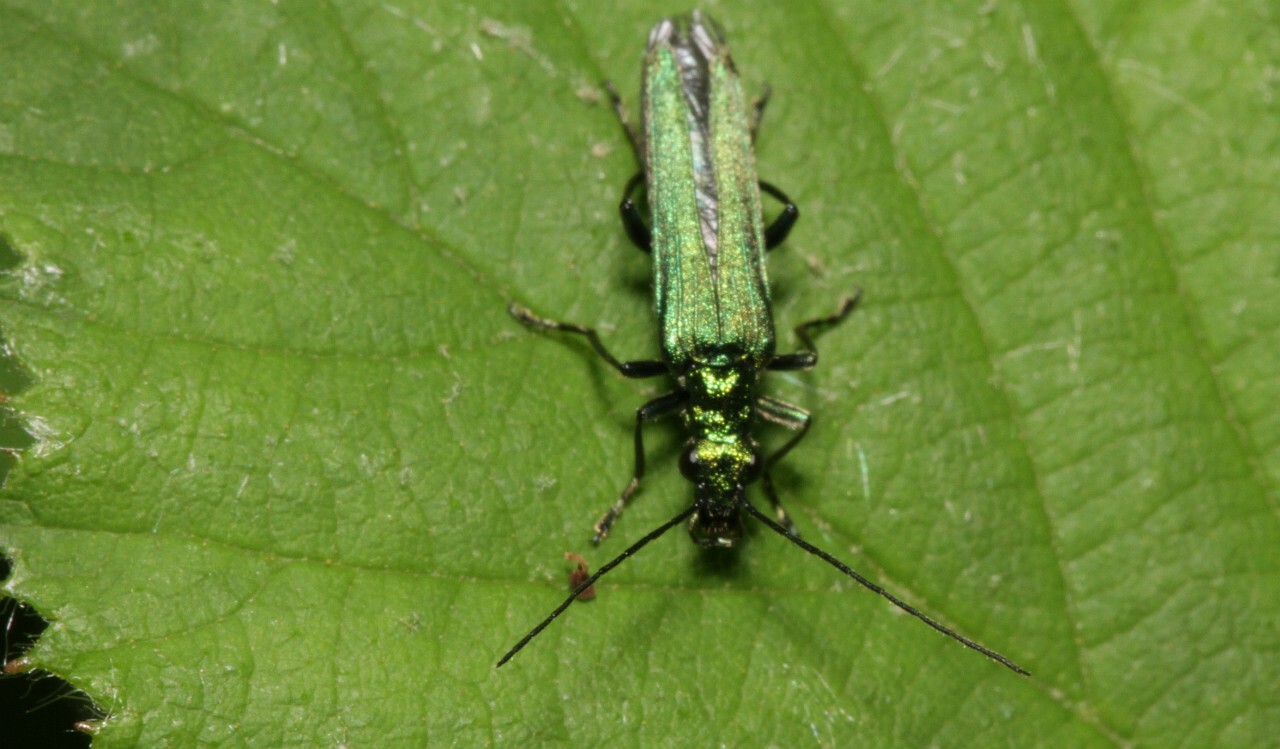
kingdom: Animalia
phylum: Arthropoda
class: Insecta
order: Coleoptera
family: Oedemeridae
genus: Oedemera
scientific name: Oedemera nobilis
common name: Swollen-thighed beetle
